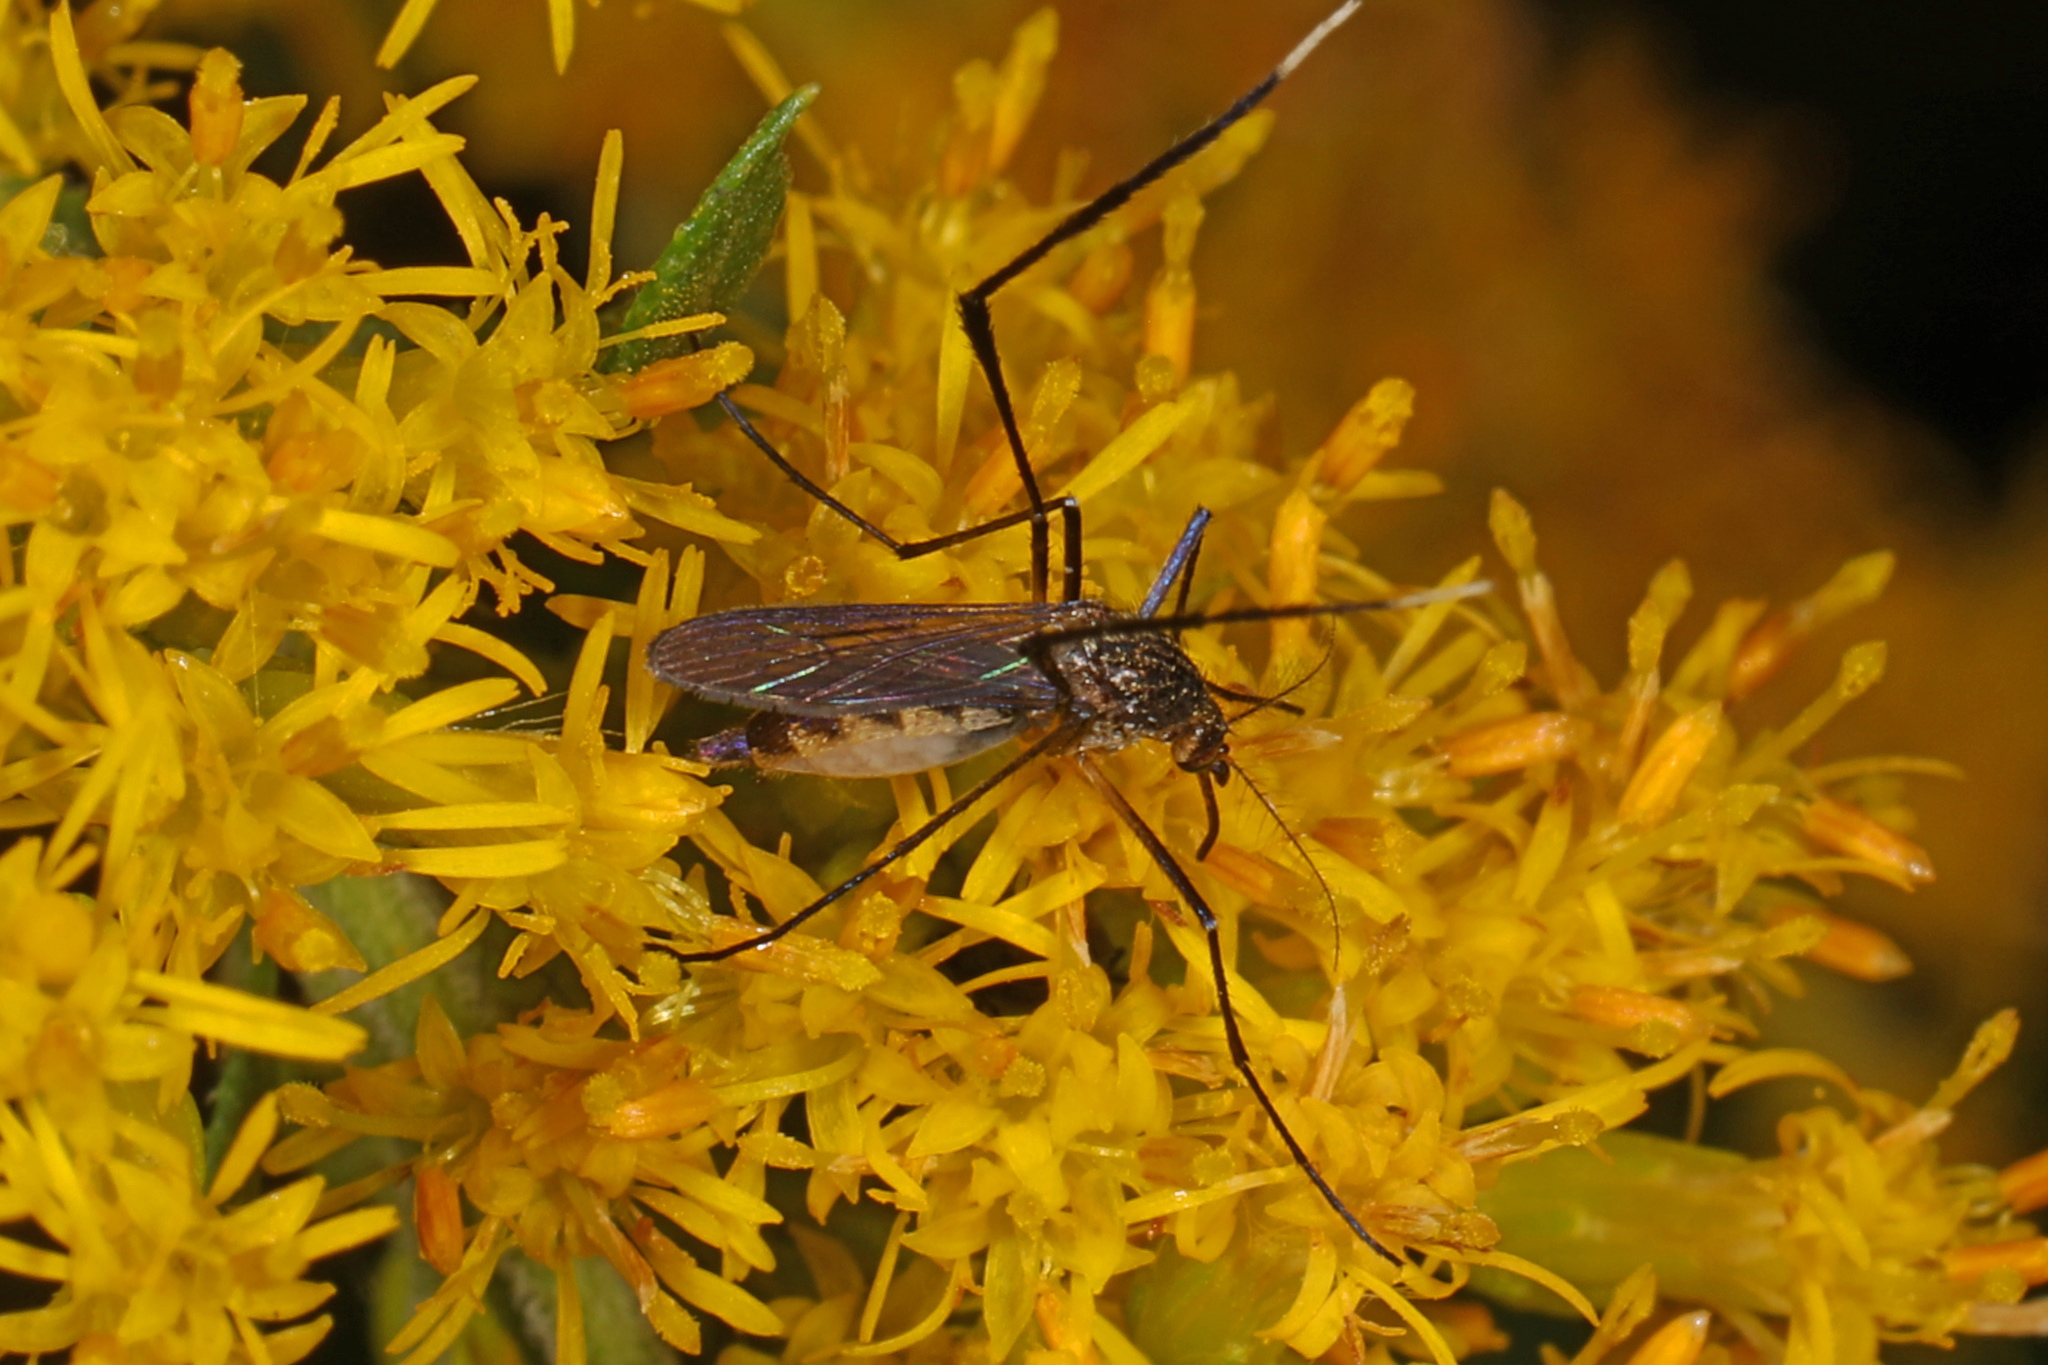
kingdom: Animalia
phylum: Arthropoda
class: Insecta
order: Diptera
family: Culicidae
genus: Psorophora
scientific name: Psorophora ferox
